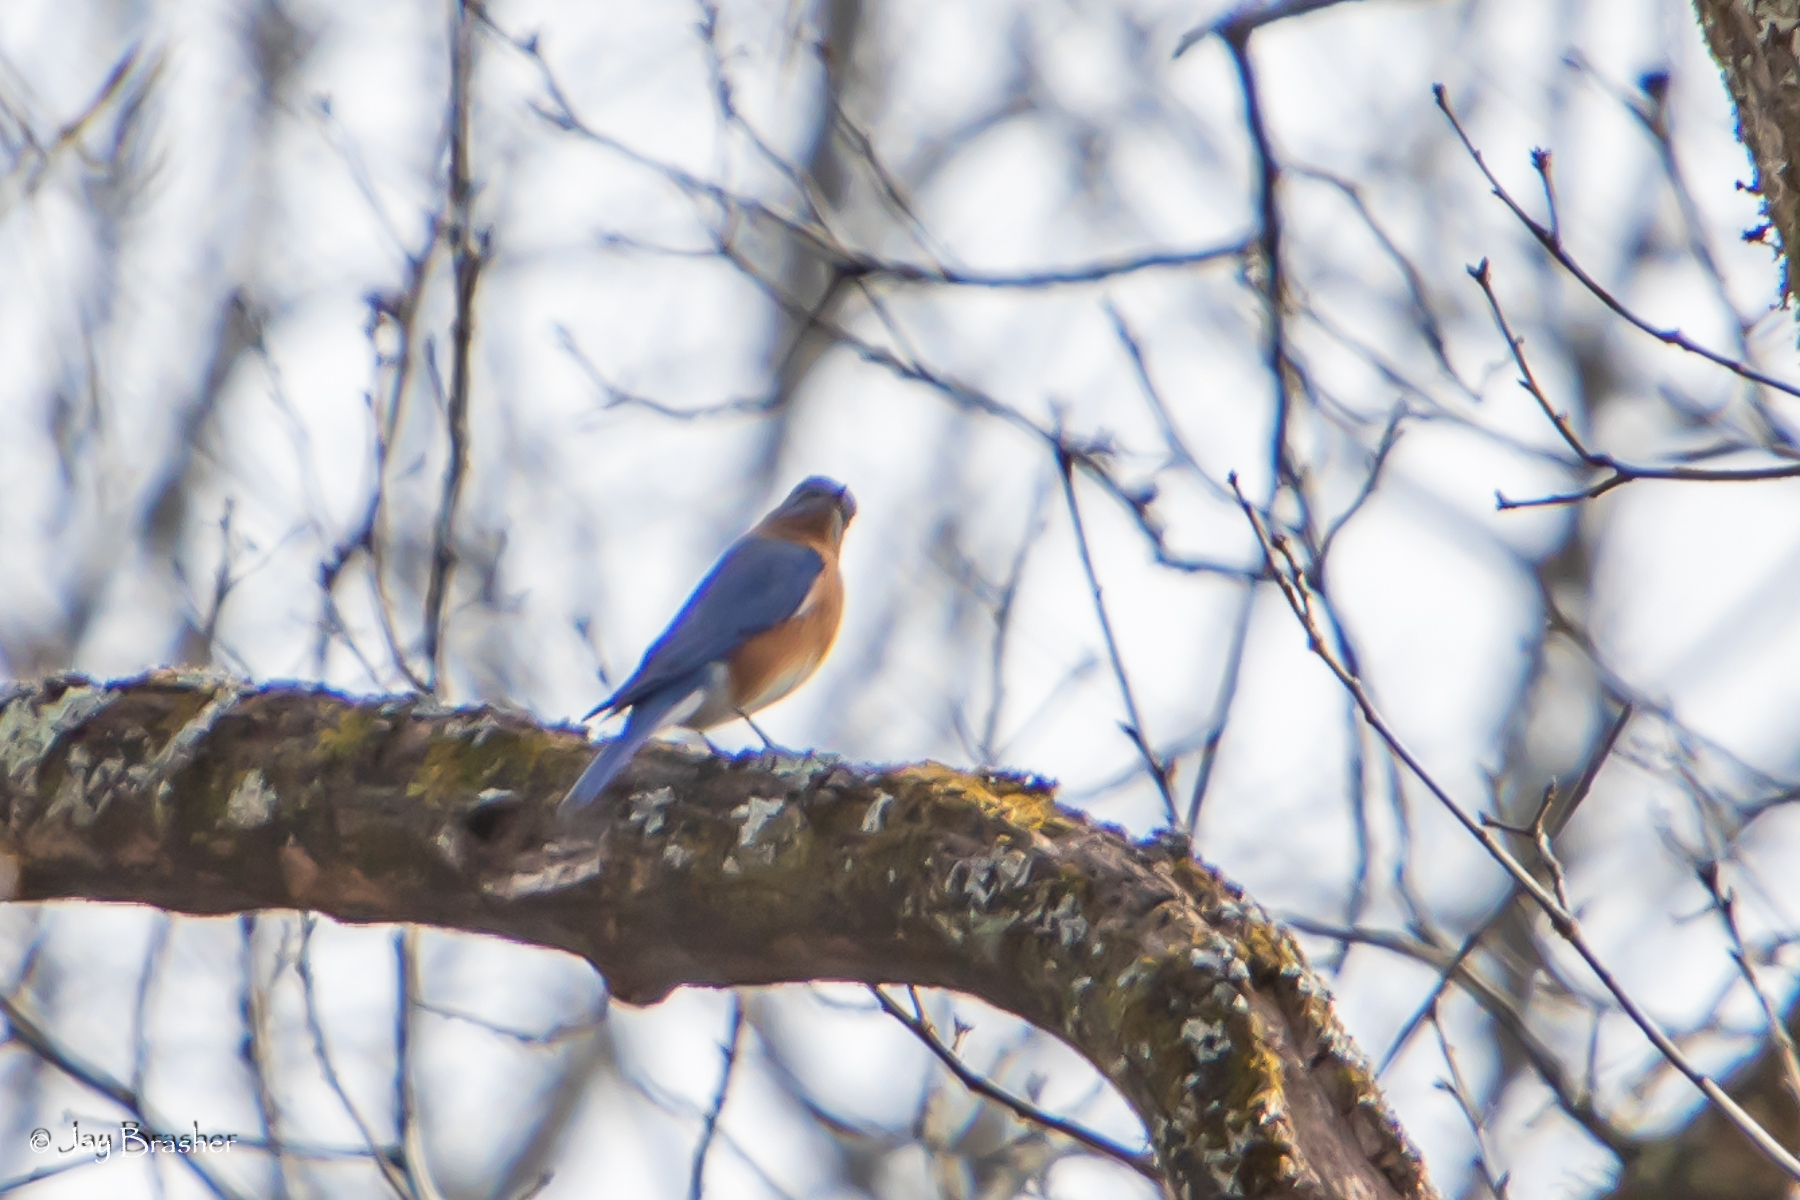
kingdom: Animalia
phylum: Chordata
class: Aves
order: Passeriformes
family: Turdidae
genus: Sialia
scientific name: Sialia sialis
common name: Eastern bluebird
